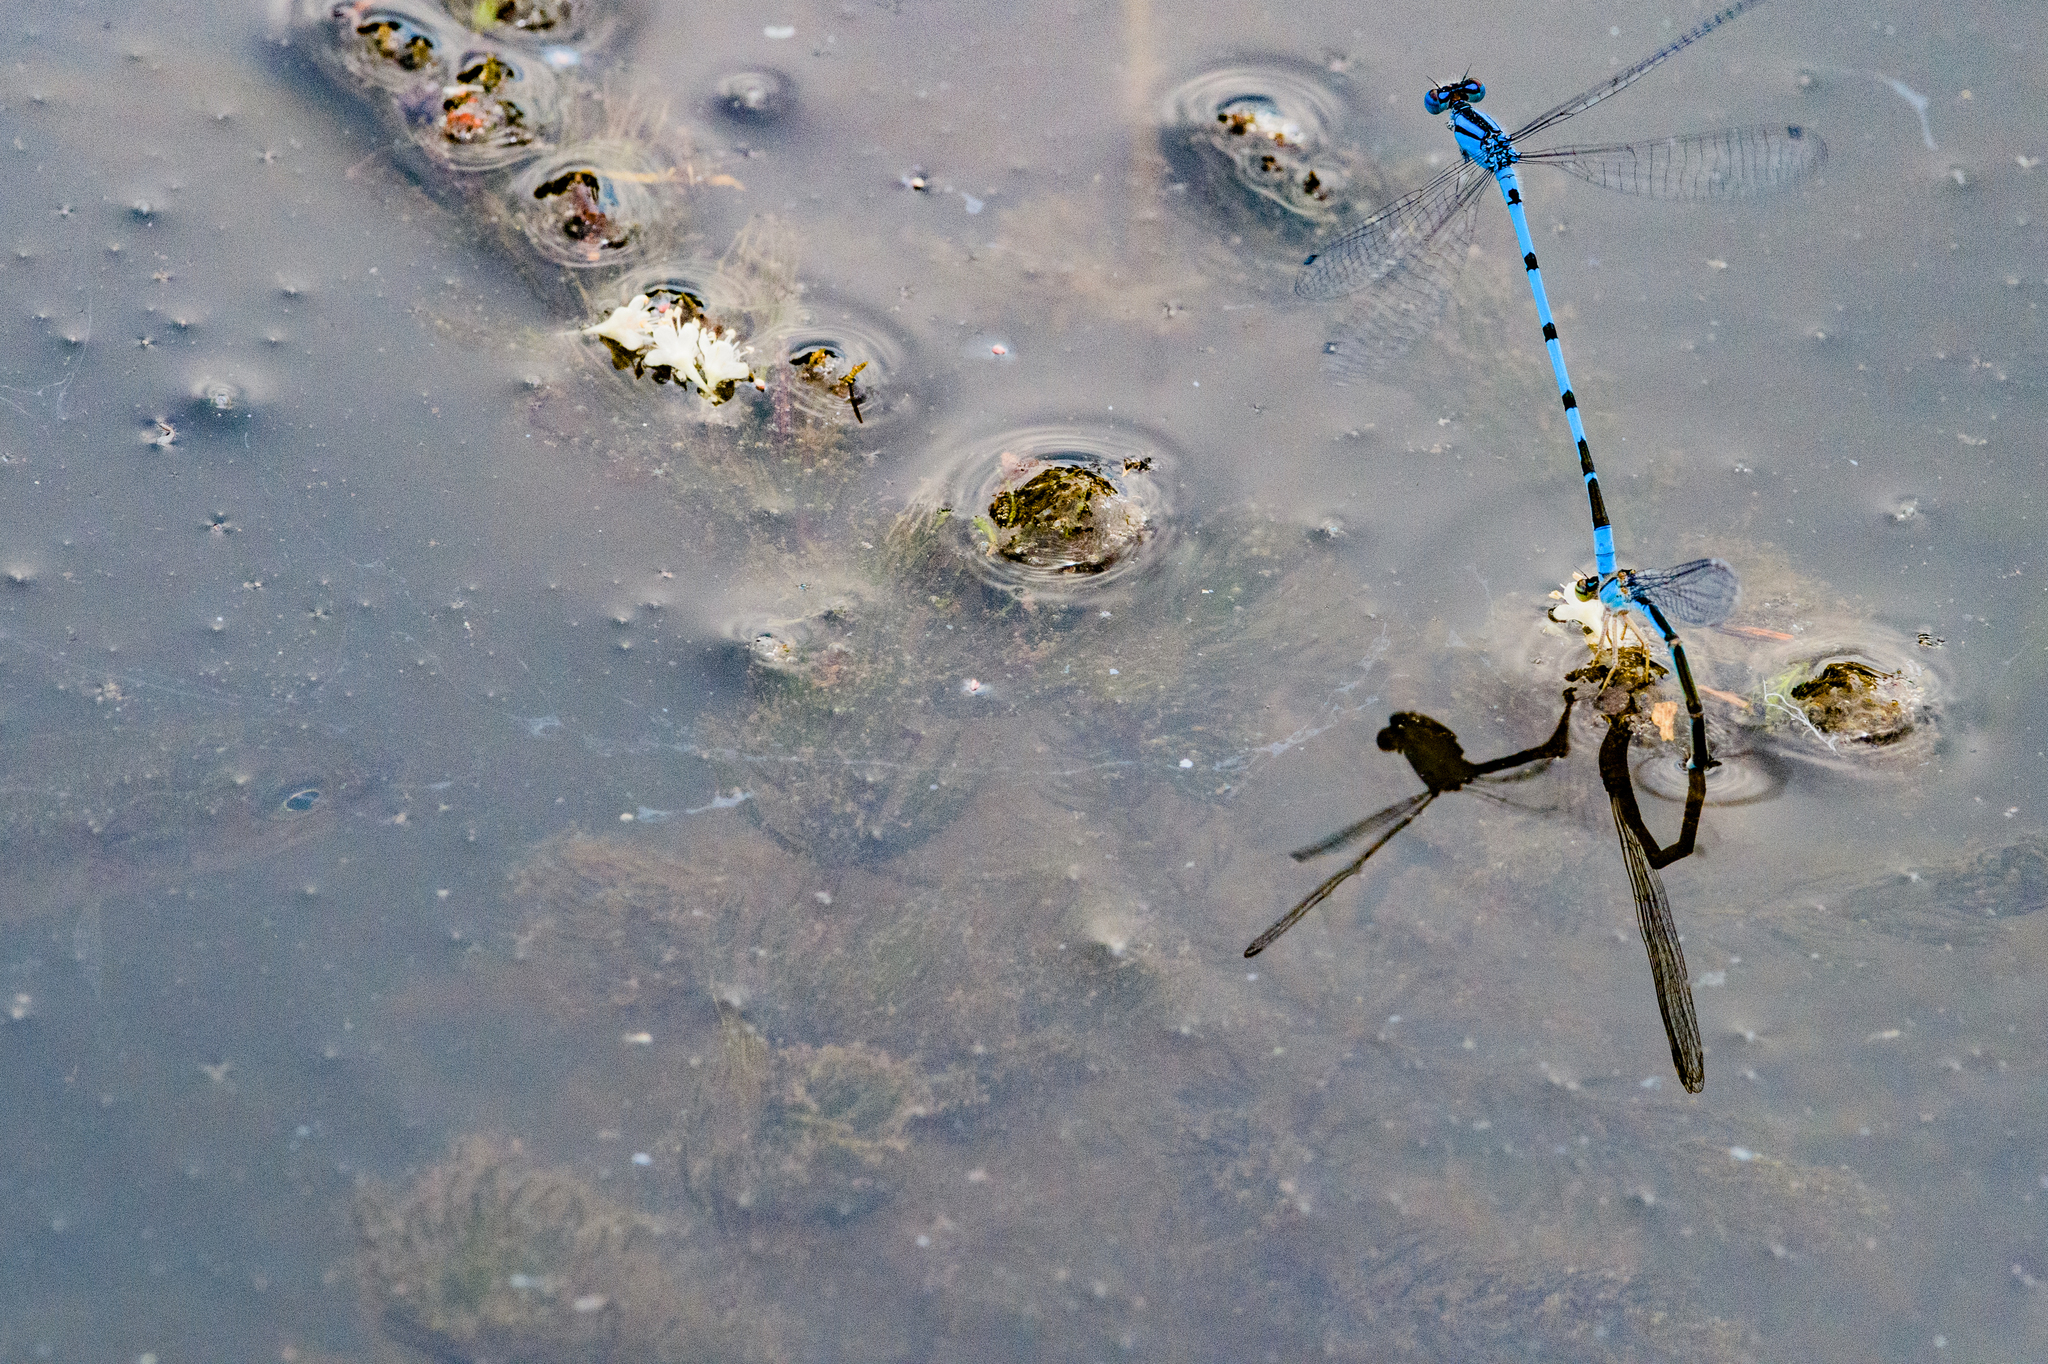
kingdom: Animalia
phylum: Arthropoda
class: Insecta
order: Odonata
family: Coenagrionidae
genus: Enallagma
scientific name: Enallagma civile
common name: Damselfly
